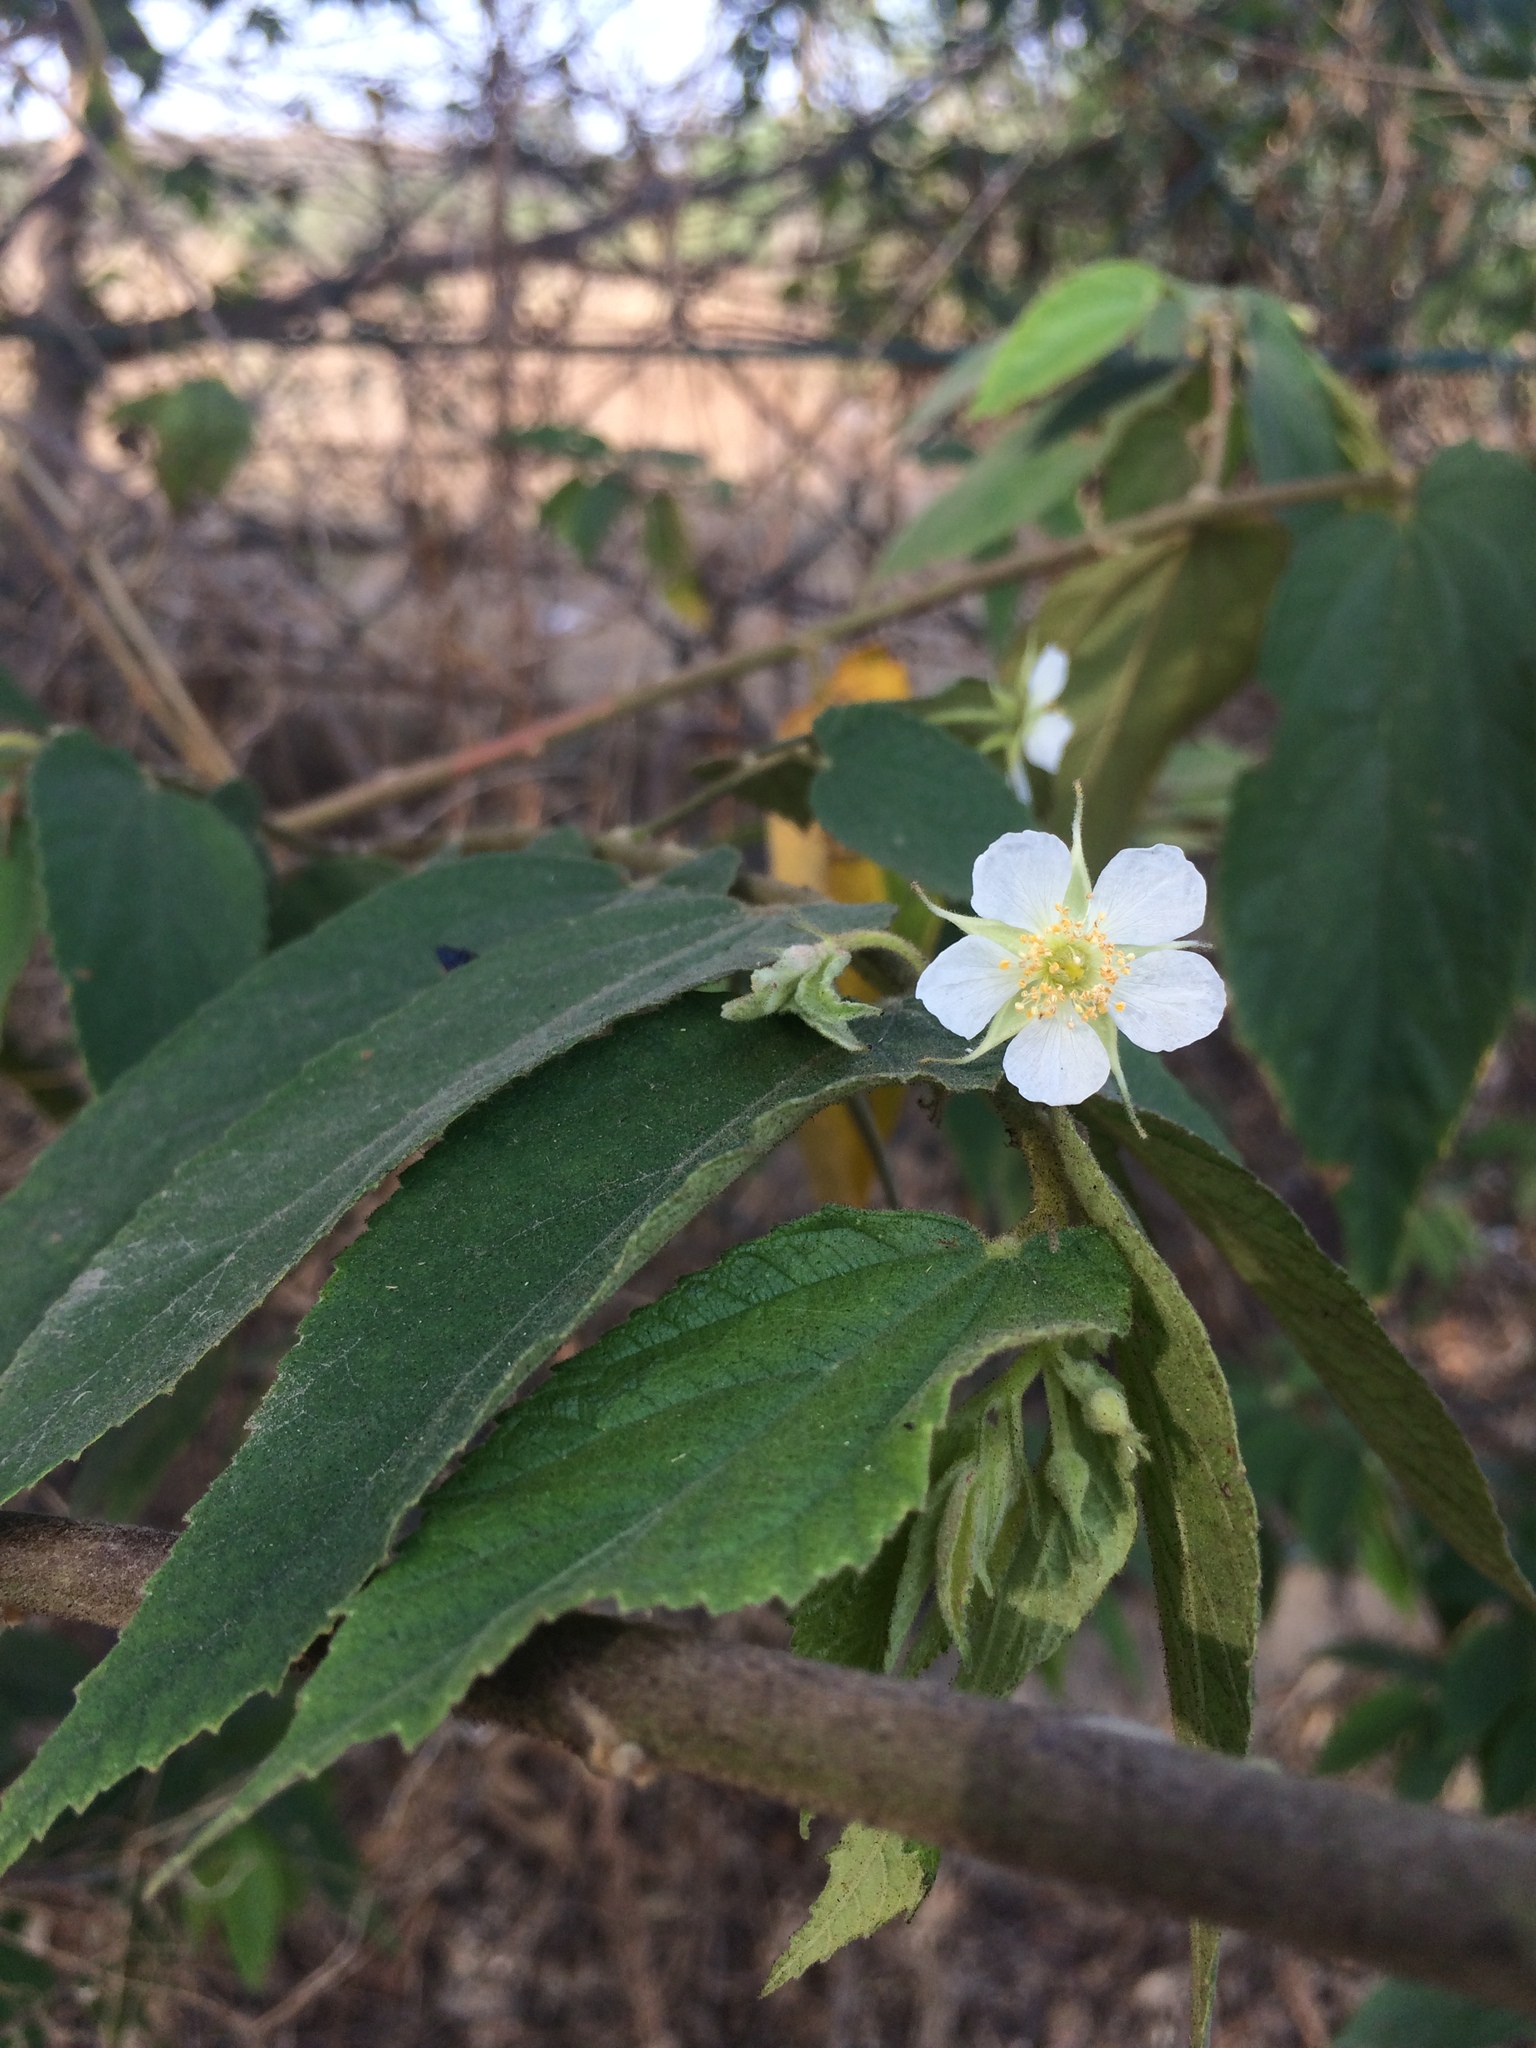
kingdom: Plantae
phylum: Tracheophyta
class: Magnoliopsida
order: Malvales
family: Muntingiaceae
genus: Muntingia
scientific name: Muntingia calabura
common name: Strawberrytree
